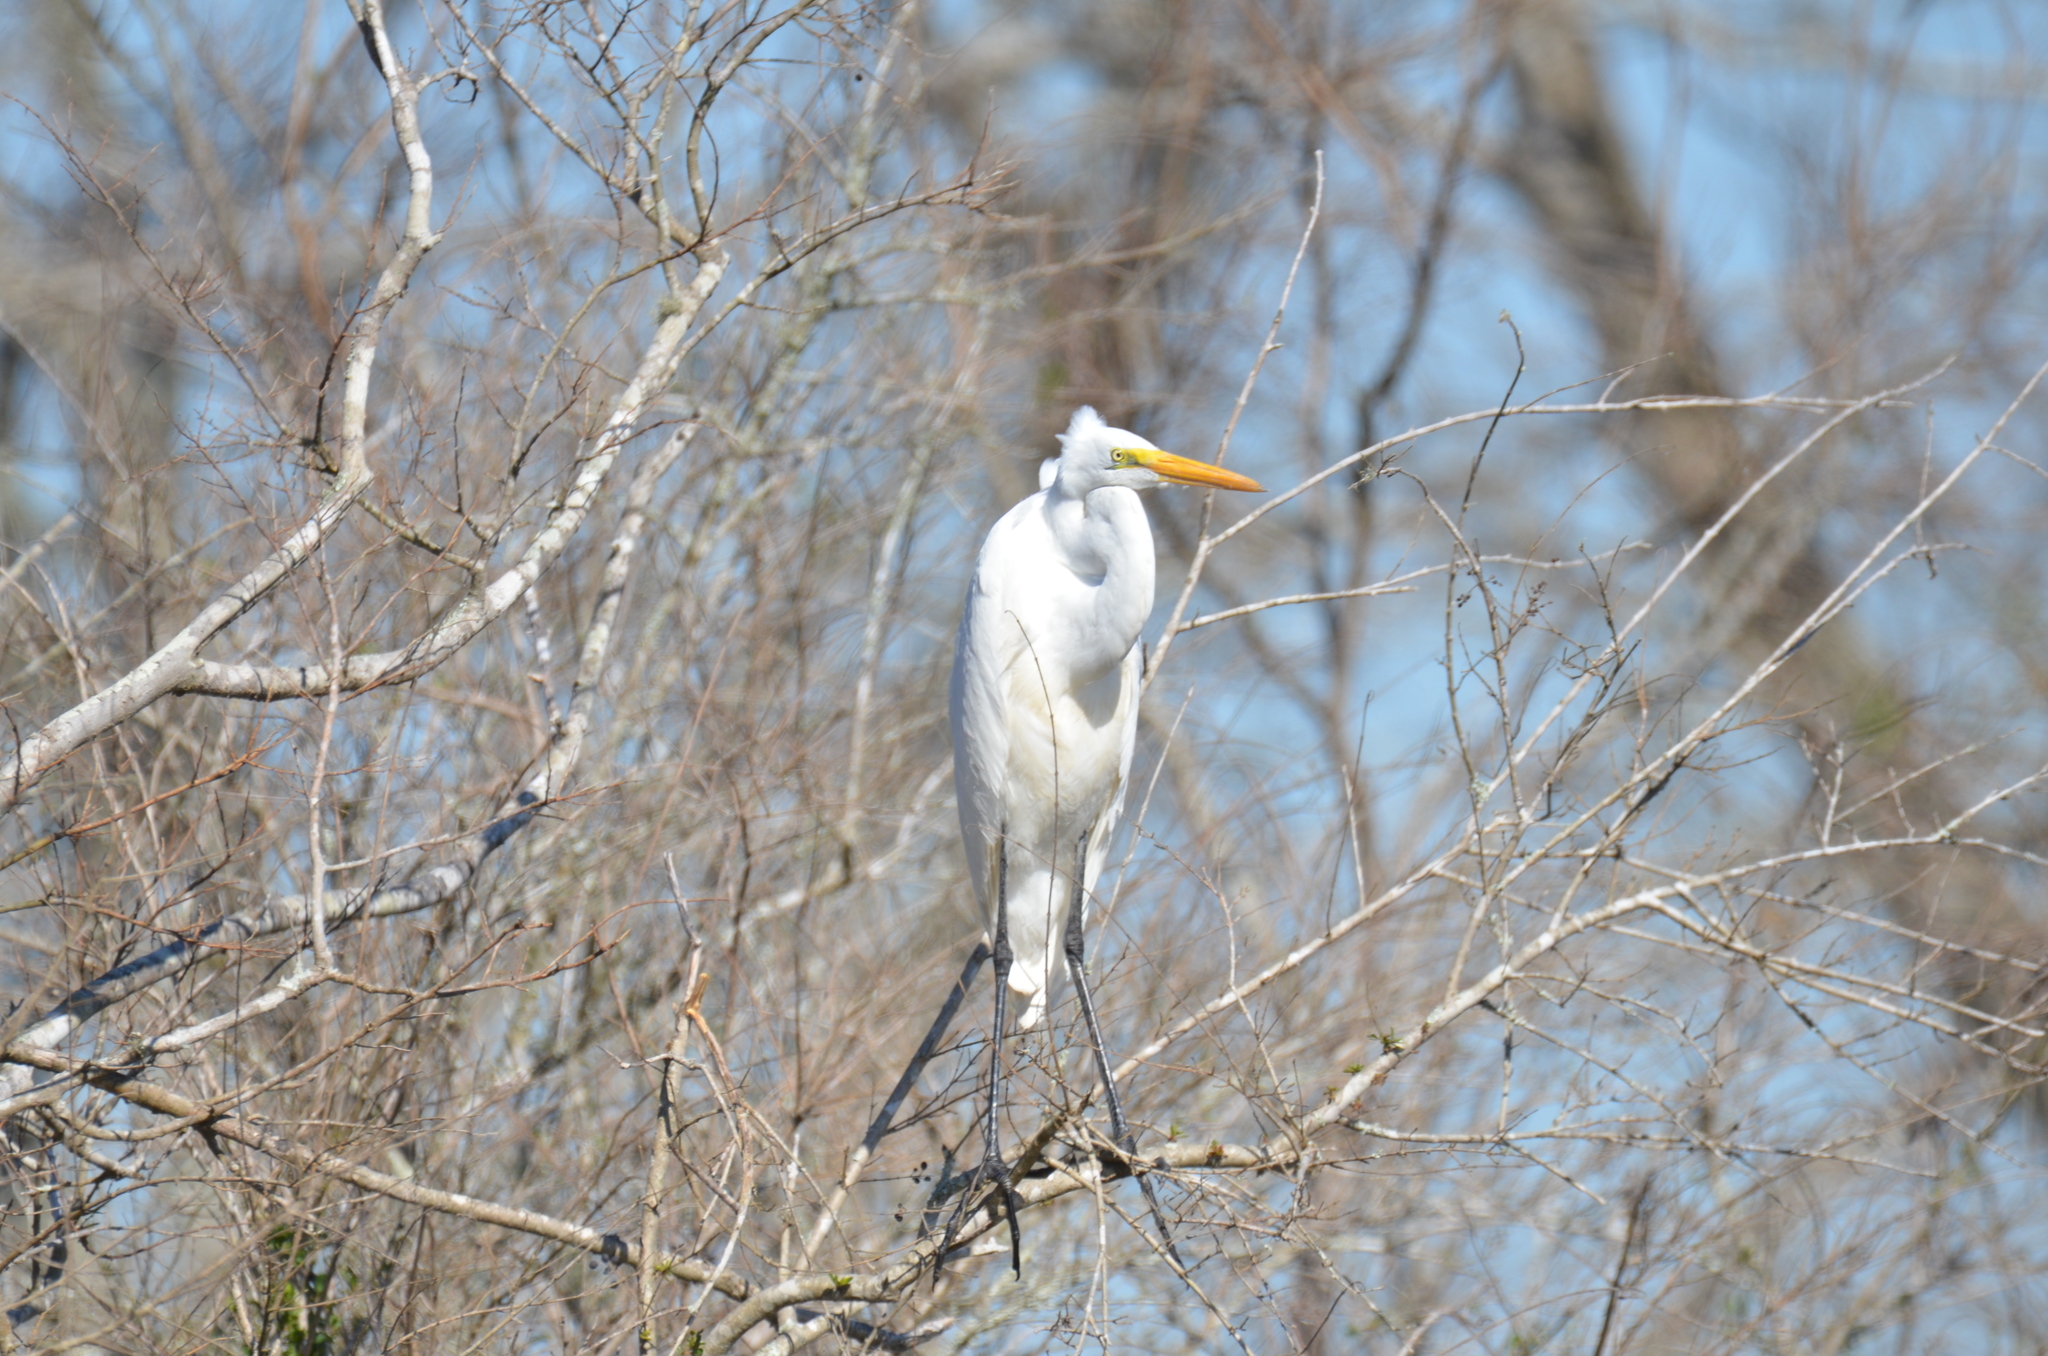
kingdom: Animalia
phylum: Chordata
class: Aves
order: Pelecaniformes
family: Ardeidae
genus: Ardea
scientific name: Ardea alba
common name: Great egret
